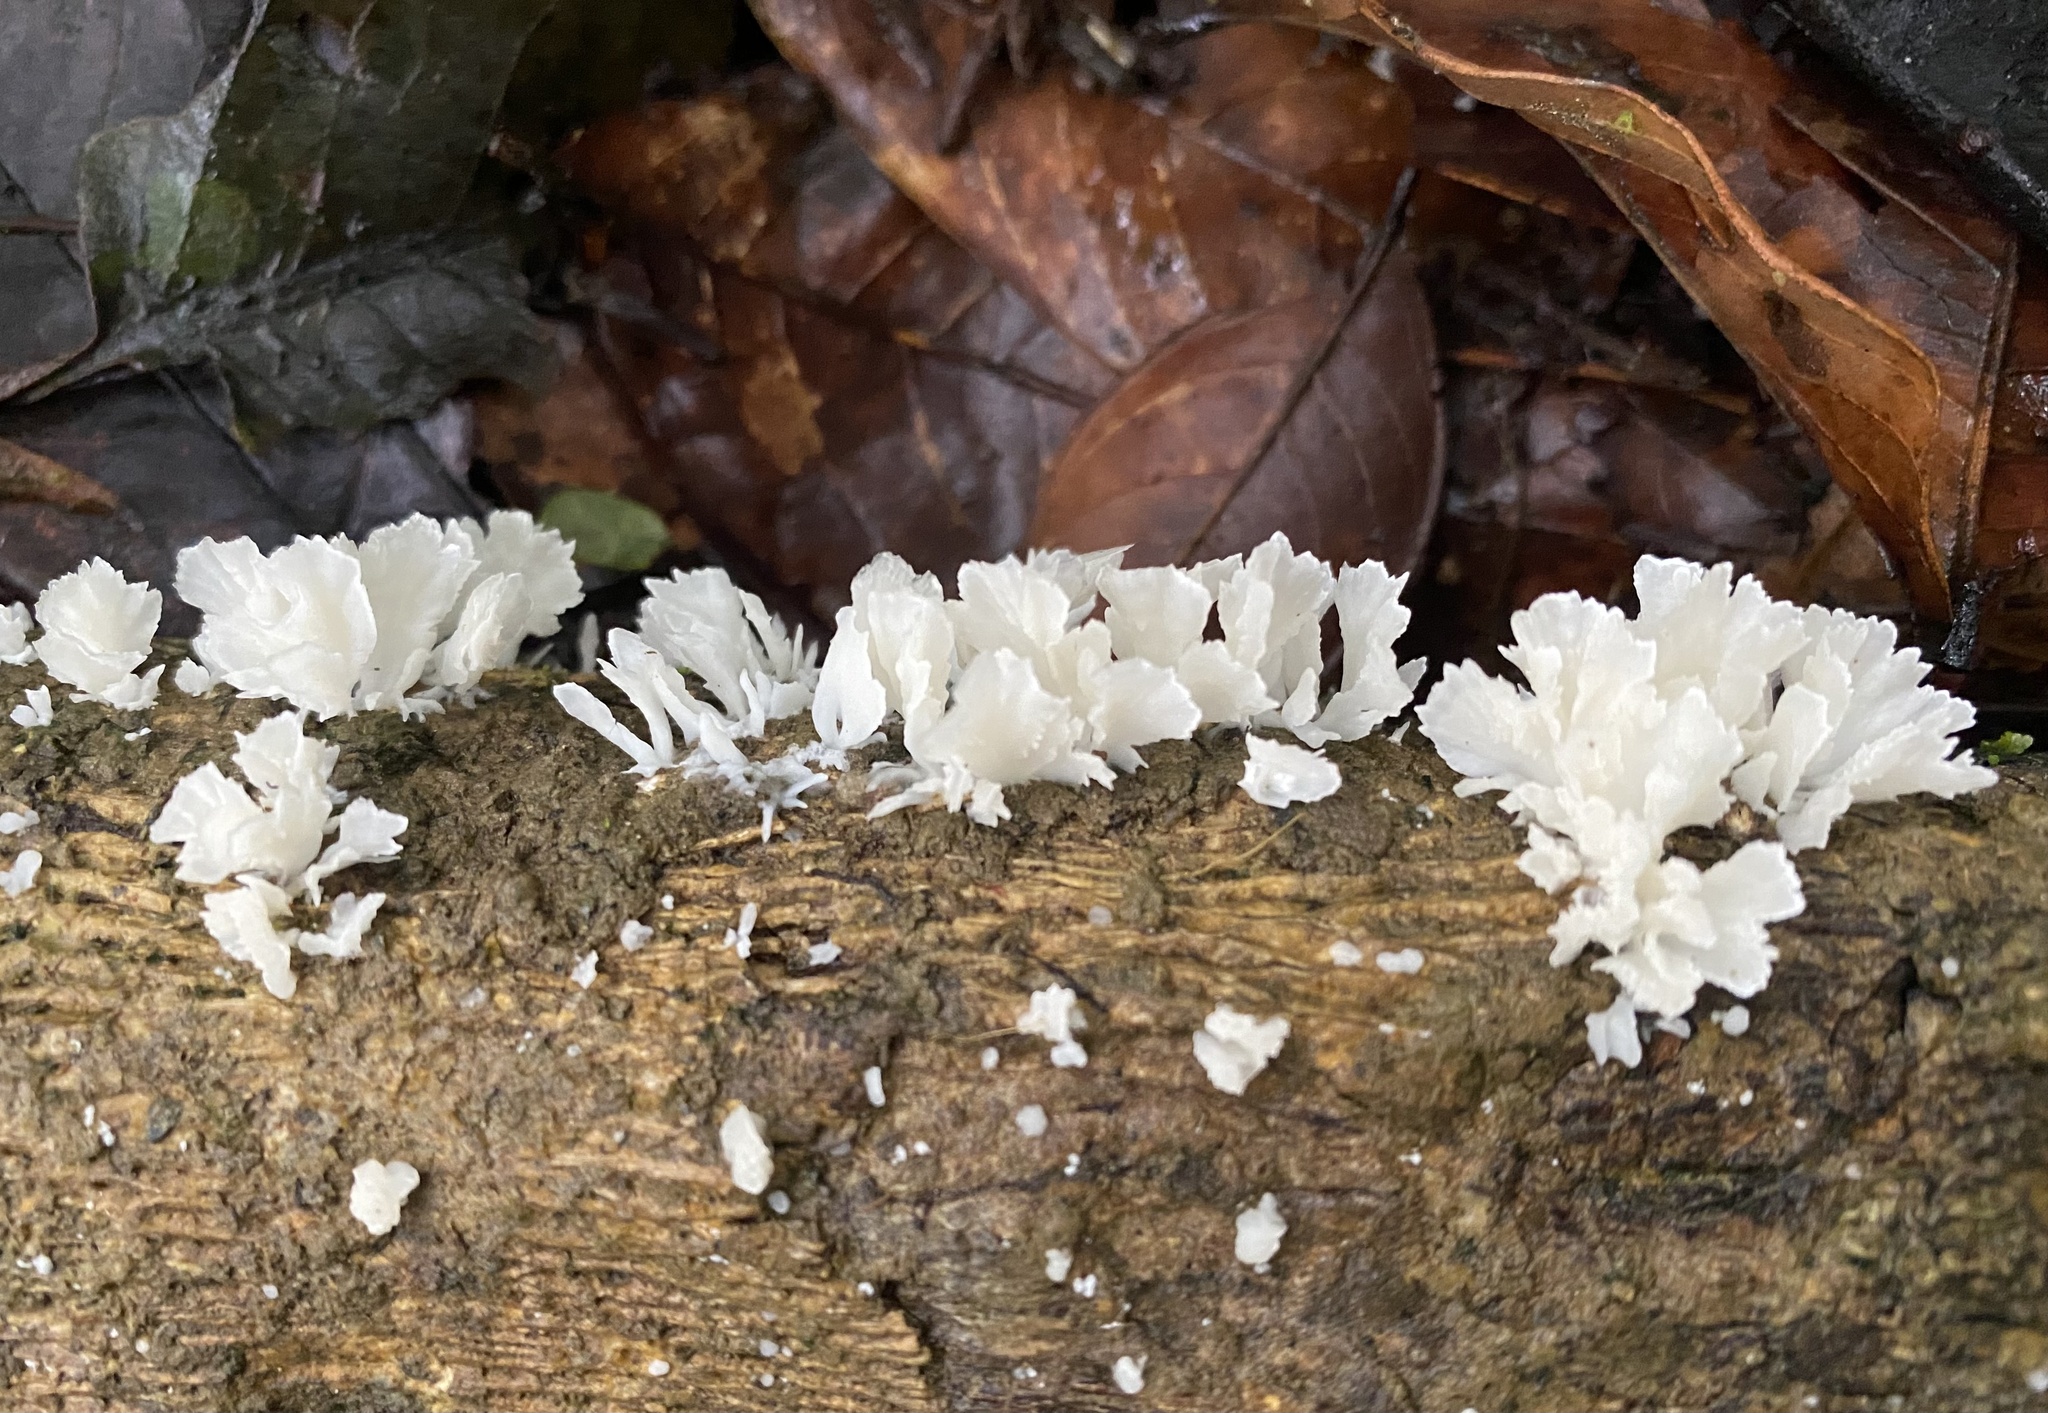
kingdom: Fungi
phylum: Basidiomycota
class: Agaricomycetes
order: Polyporales
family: Irpicaceae
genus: Irpex
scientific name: Irpex rosettiformis
